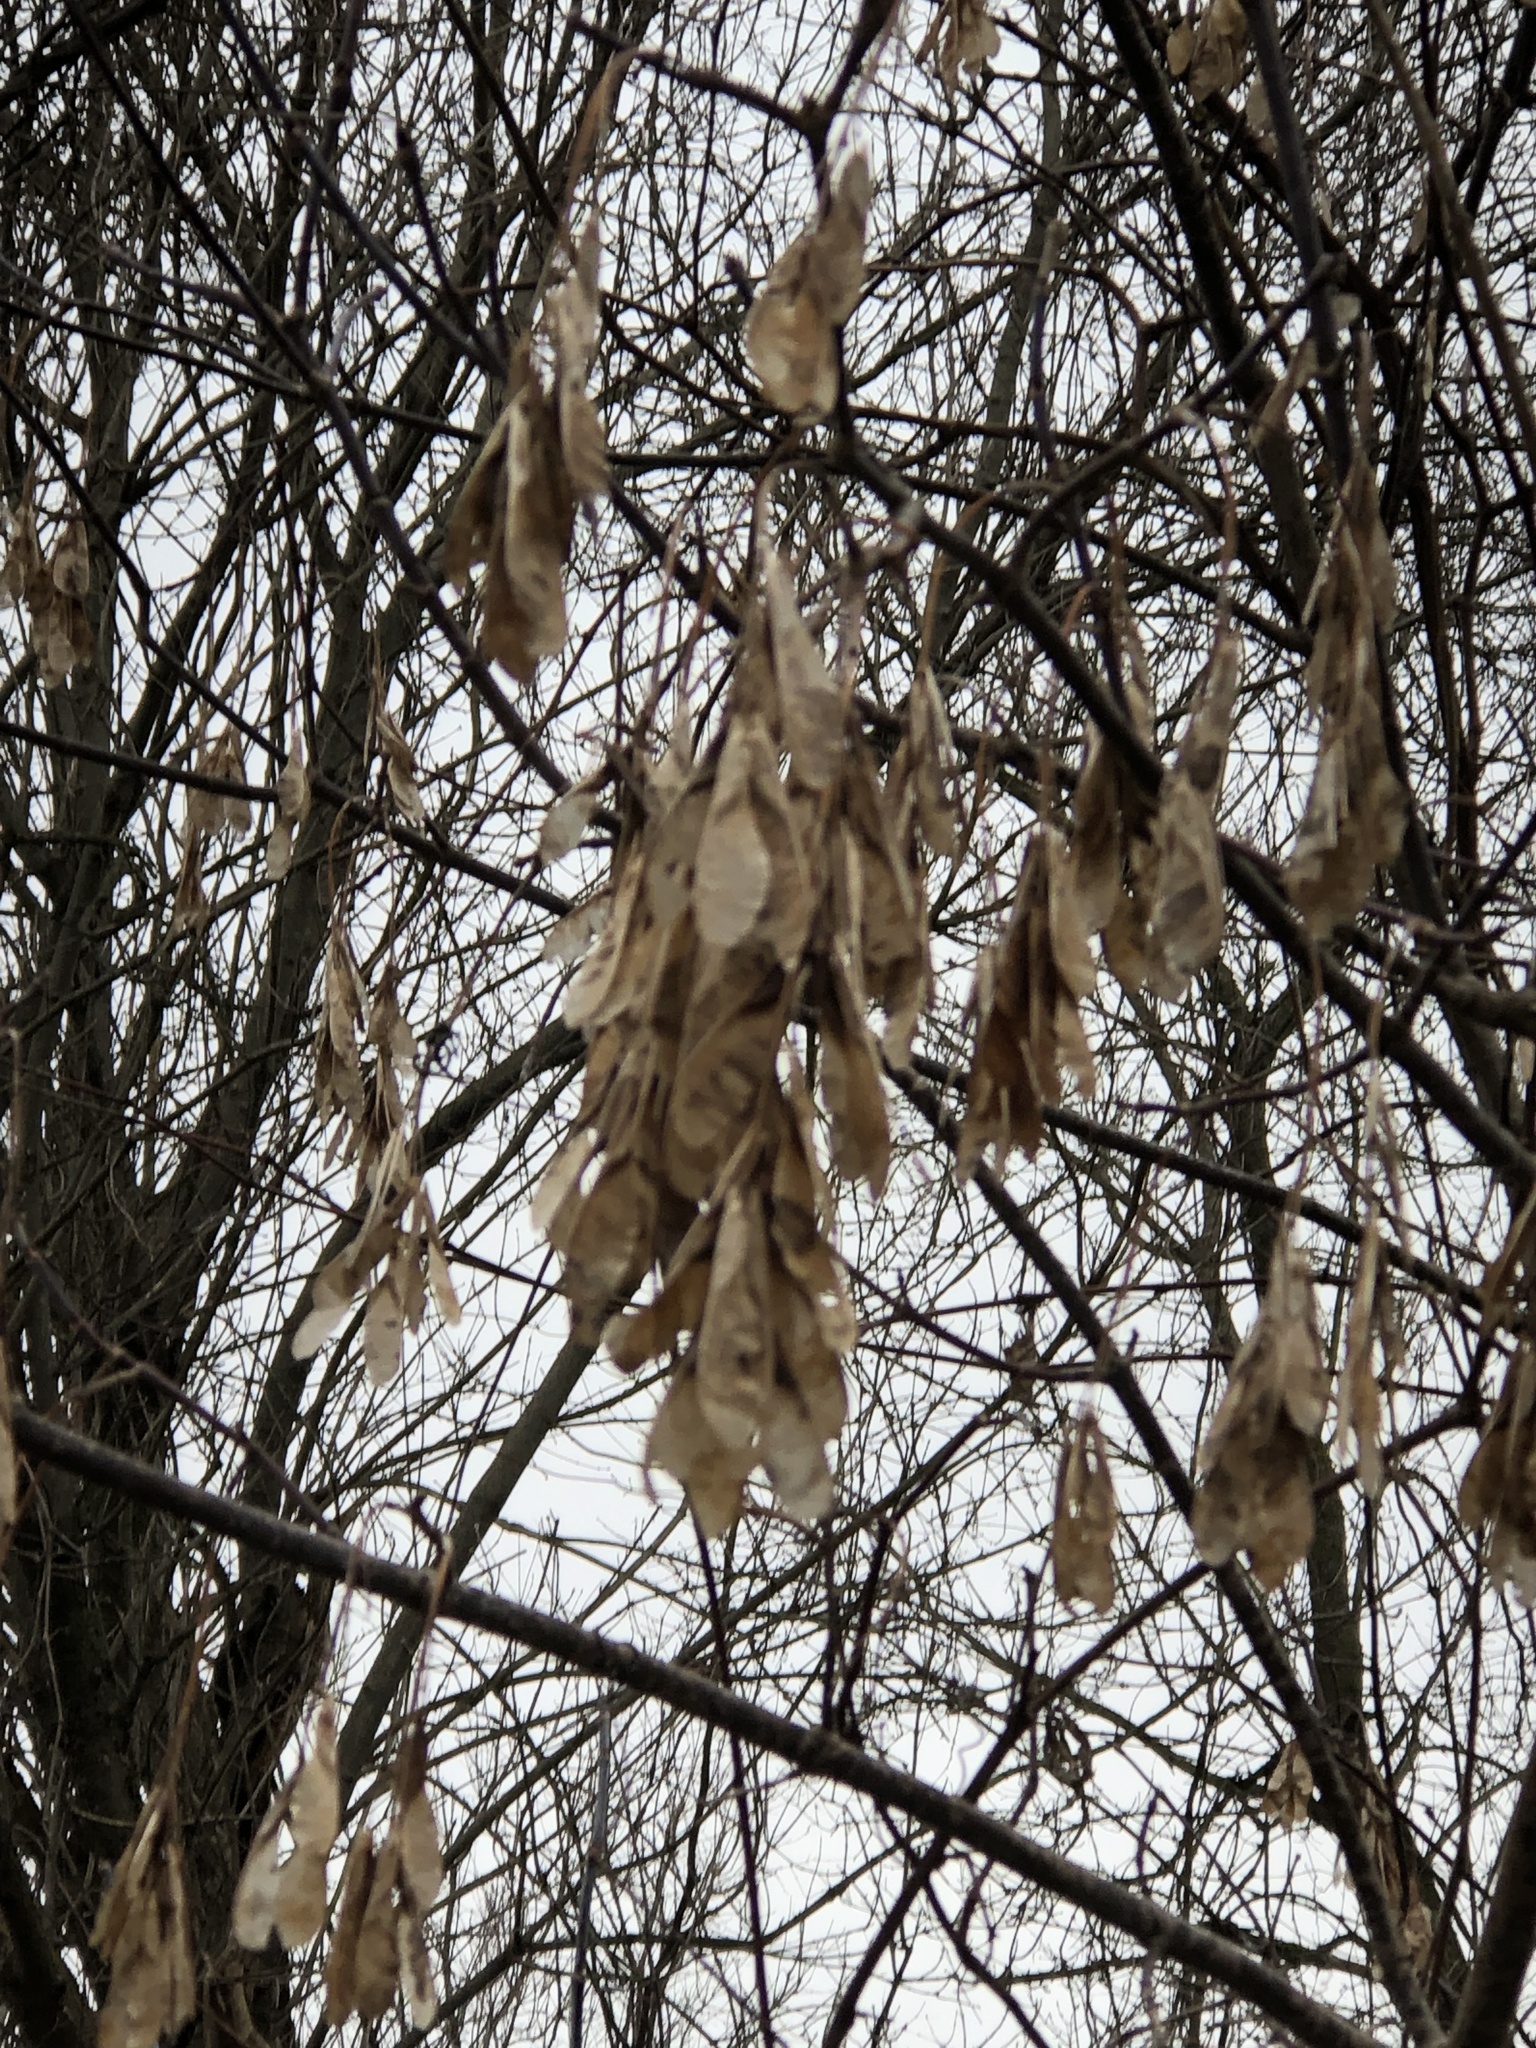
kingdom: Plantae
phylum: Tracheophyta
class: Magnoliopsida
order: Sapindales
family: Sapindaceae
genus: Acer
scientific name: Acer negundo
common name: Ashleaf maple
